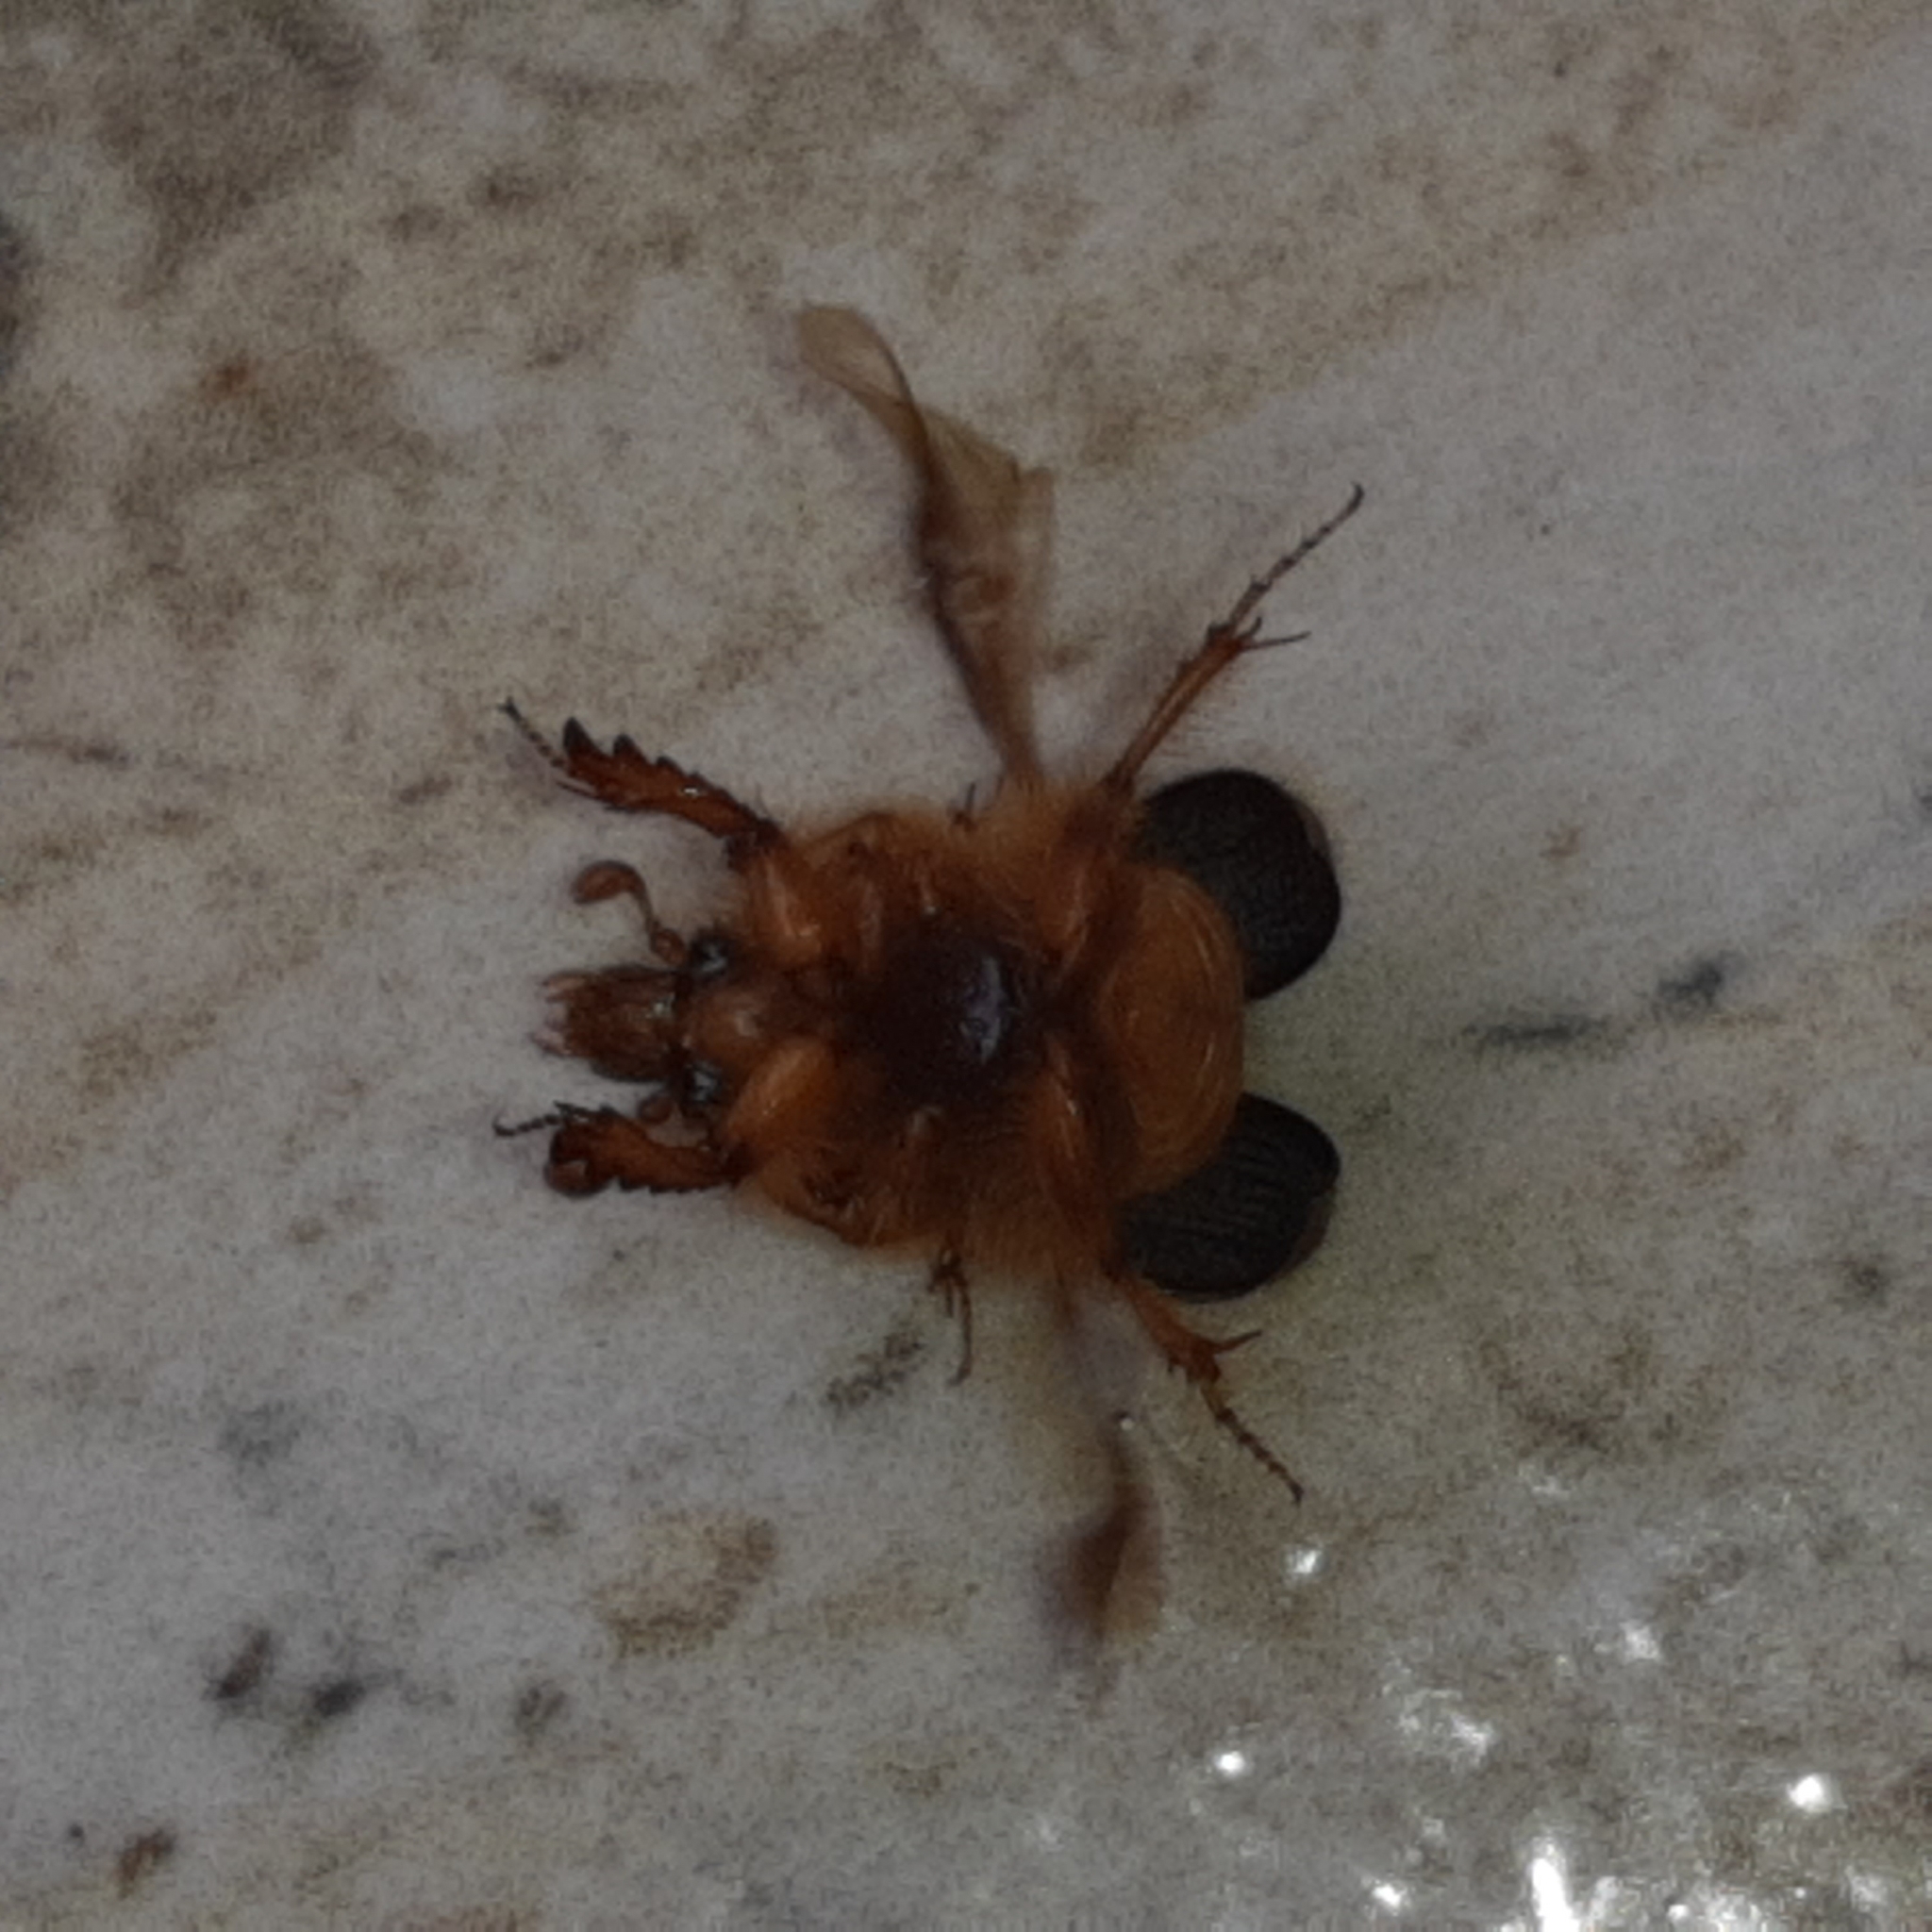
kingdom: Animalia
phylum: Arthropoda
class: Insecta
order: Coleoptera
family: Geotrupidae
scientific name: Geotrupidae
